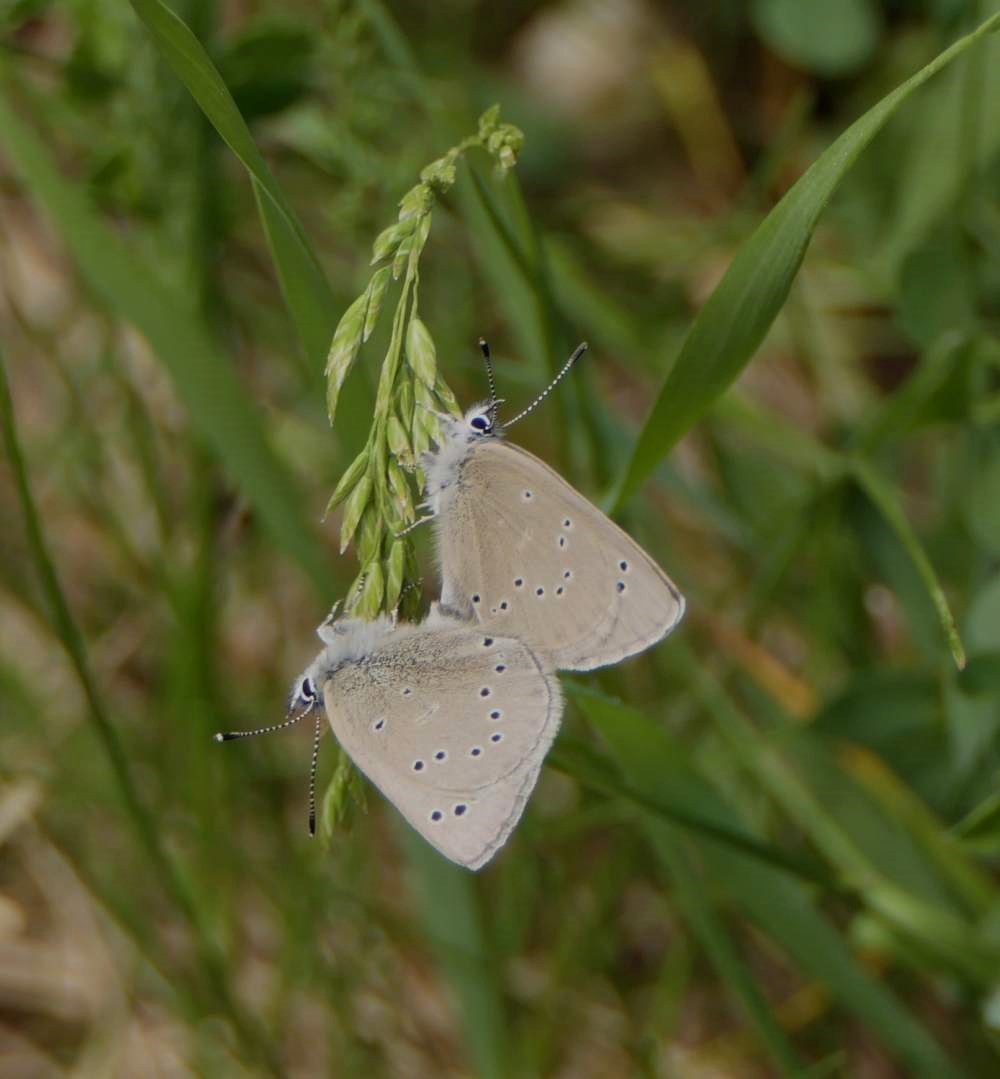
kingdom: Animalia
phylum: Arthropoda
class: Insecta
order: Lepidoptera
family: Lycaenidae
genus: Glaucopsyche
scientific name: Glaucopsyche lygdamus
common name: Silvery blue
